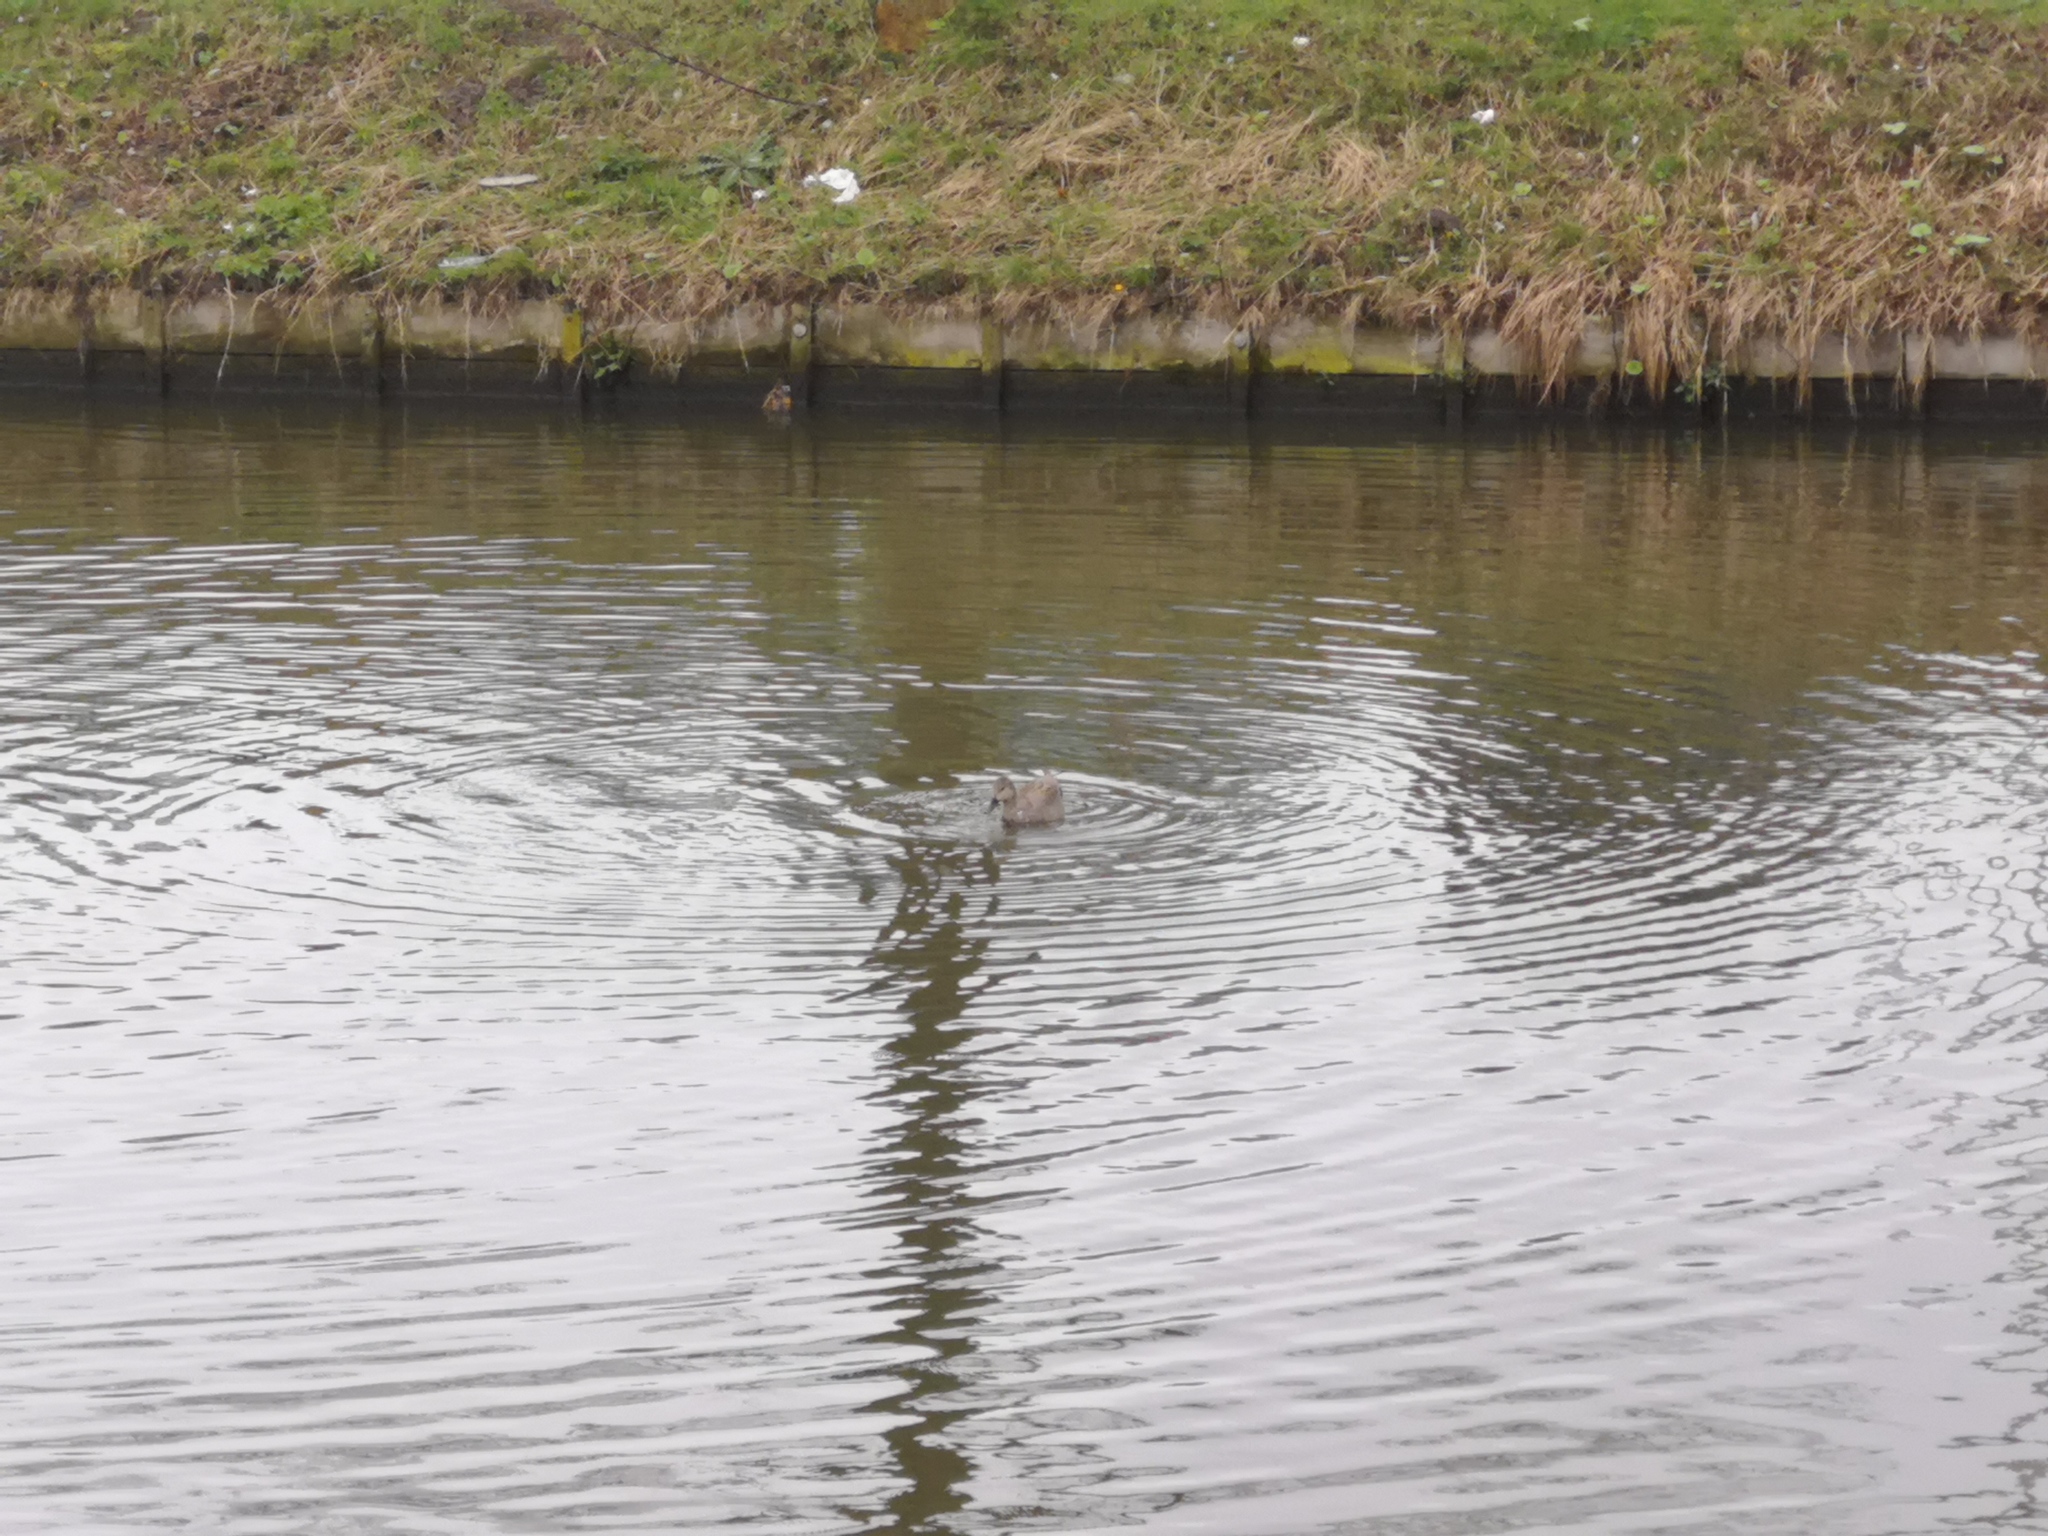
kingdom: Animalia
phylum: Chordata
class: Aves
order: Anseriformes
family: Anatidae
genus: Mareca
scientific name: Mareca strepera
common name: Gadwall
